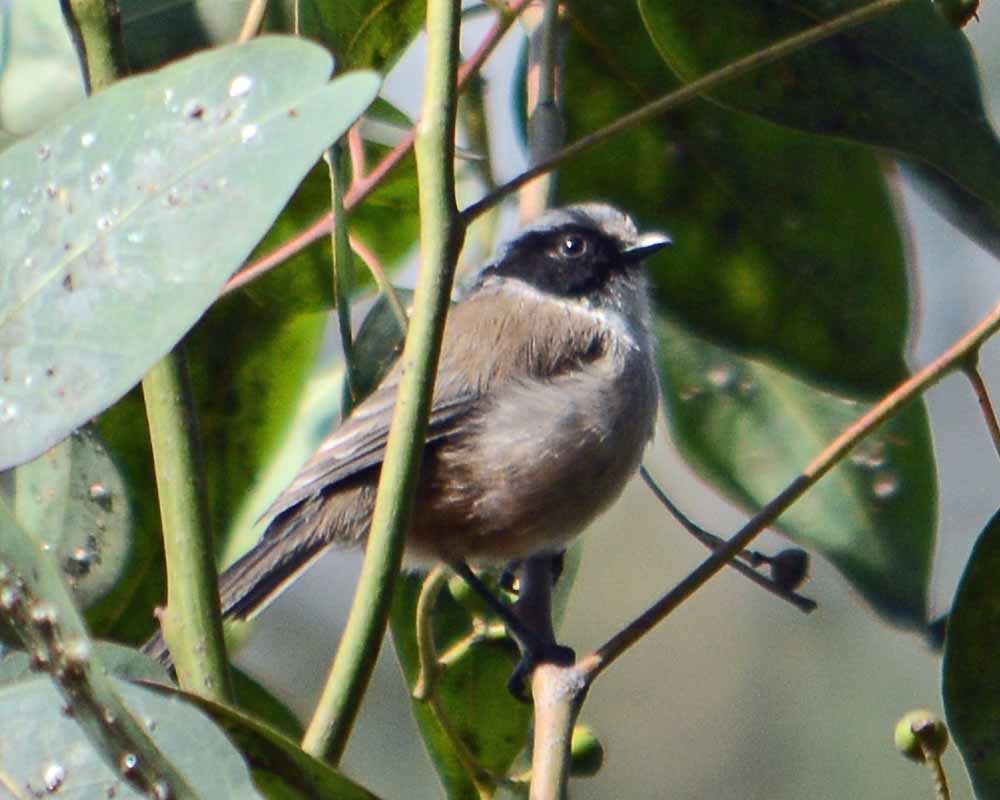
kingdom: Animalia
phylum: Chordata
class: Aves
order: Passeriformes
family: Aegithalidae
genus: Psaltriparus
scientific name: Psaltriparus minimus
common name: American bushtit
